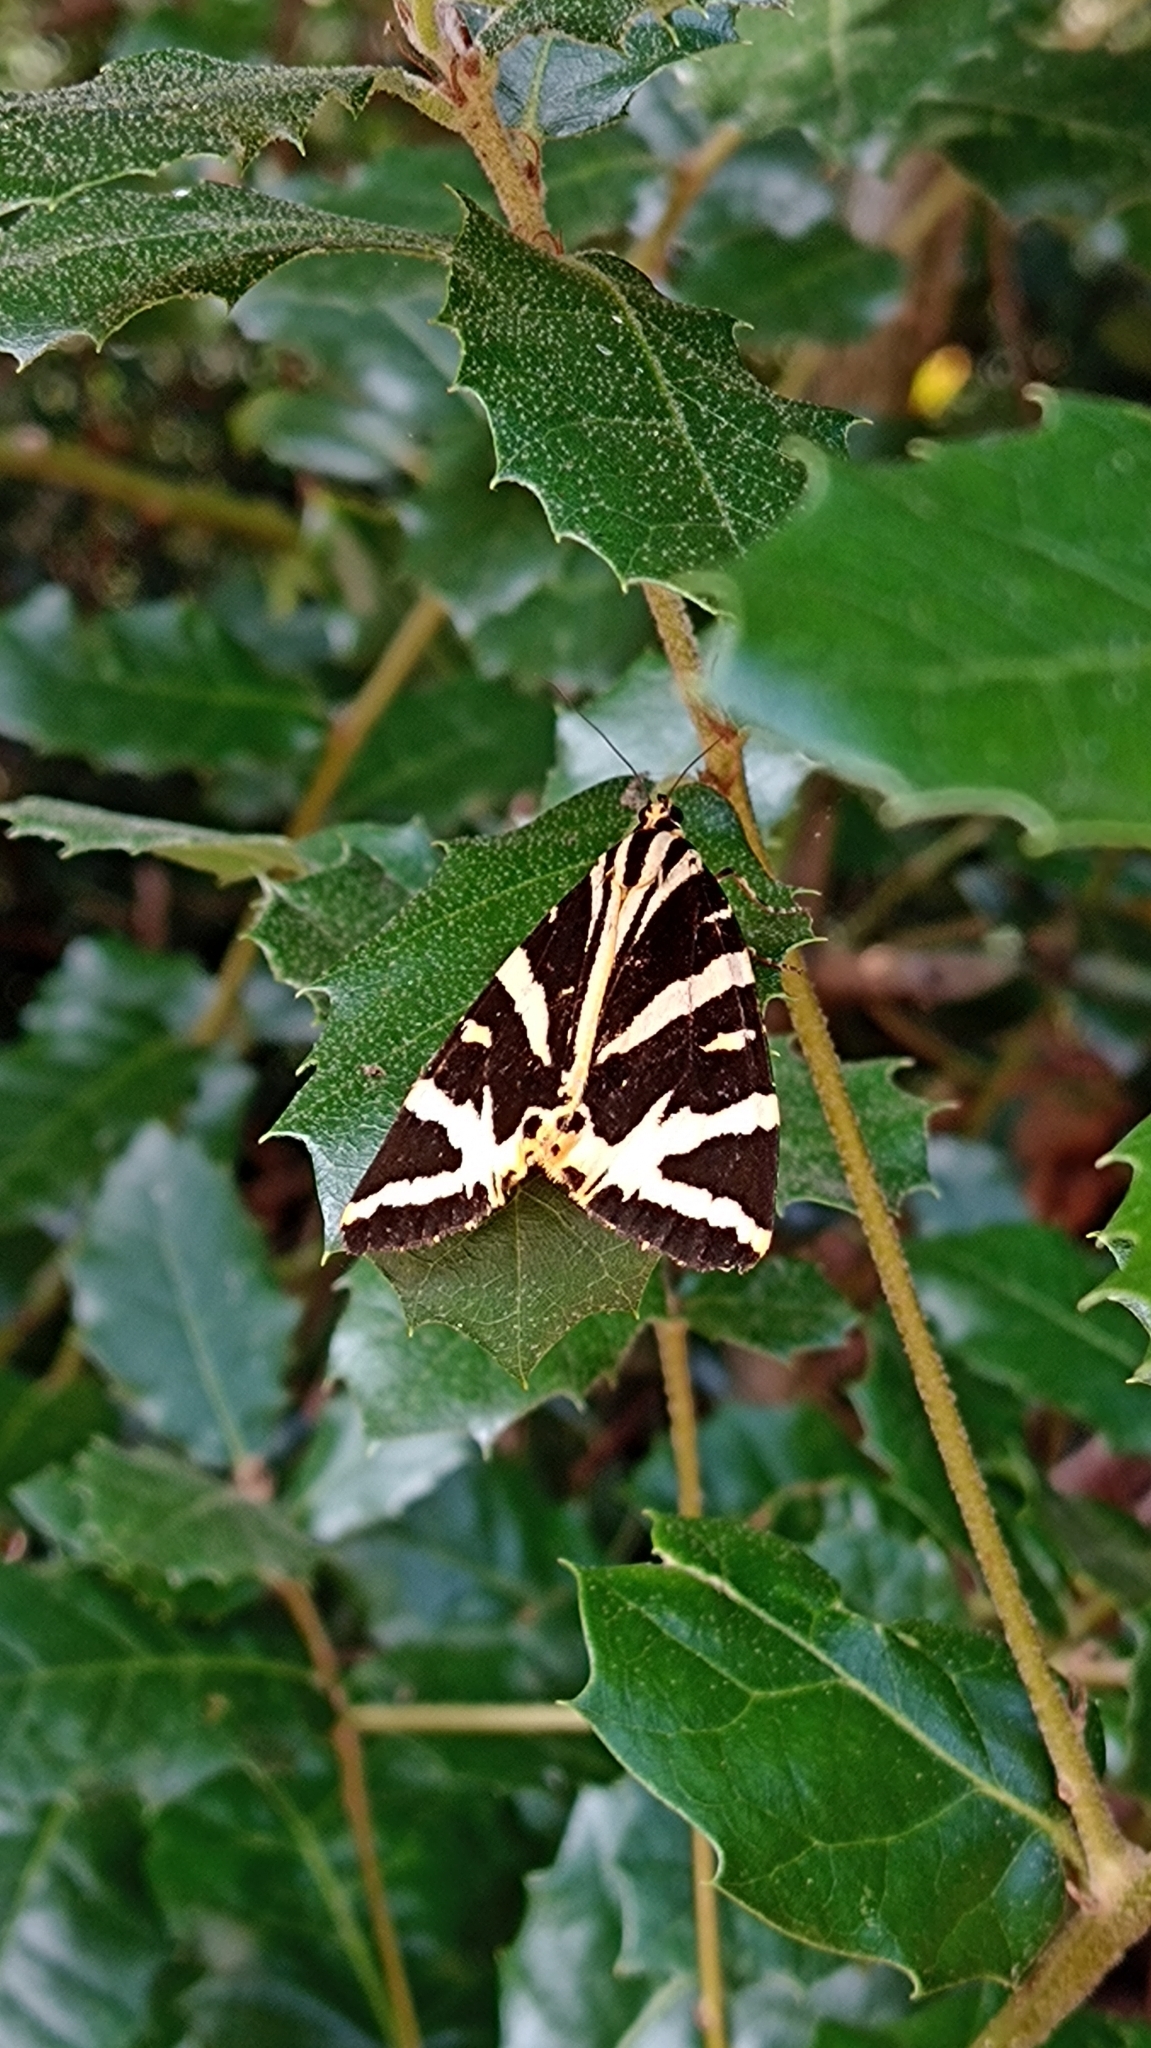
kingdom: Animalia
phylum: Arthropoda
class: Insecta
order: Lepidoptera
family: Erebidae
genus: Euplagia
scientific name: Euplagia quadripunctaria
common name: Jersey tiger
